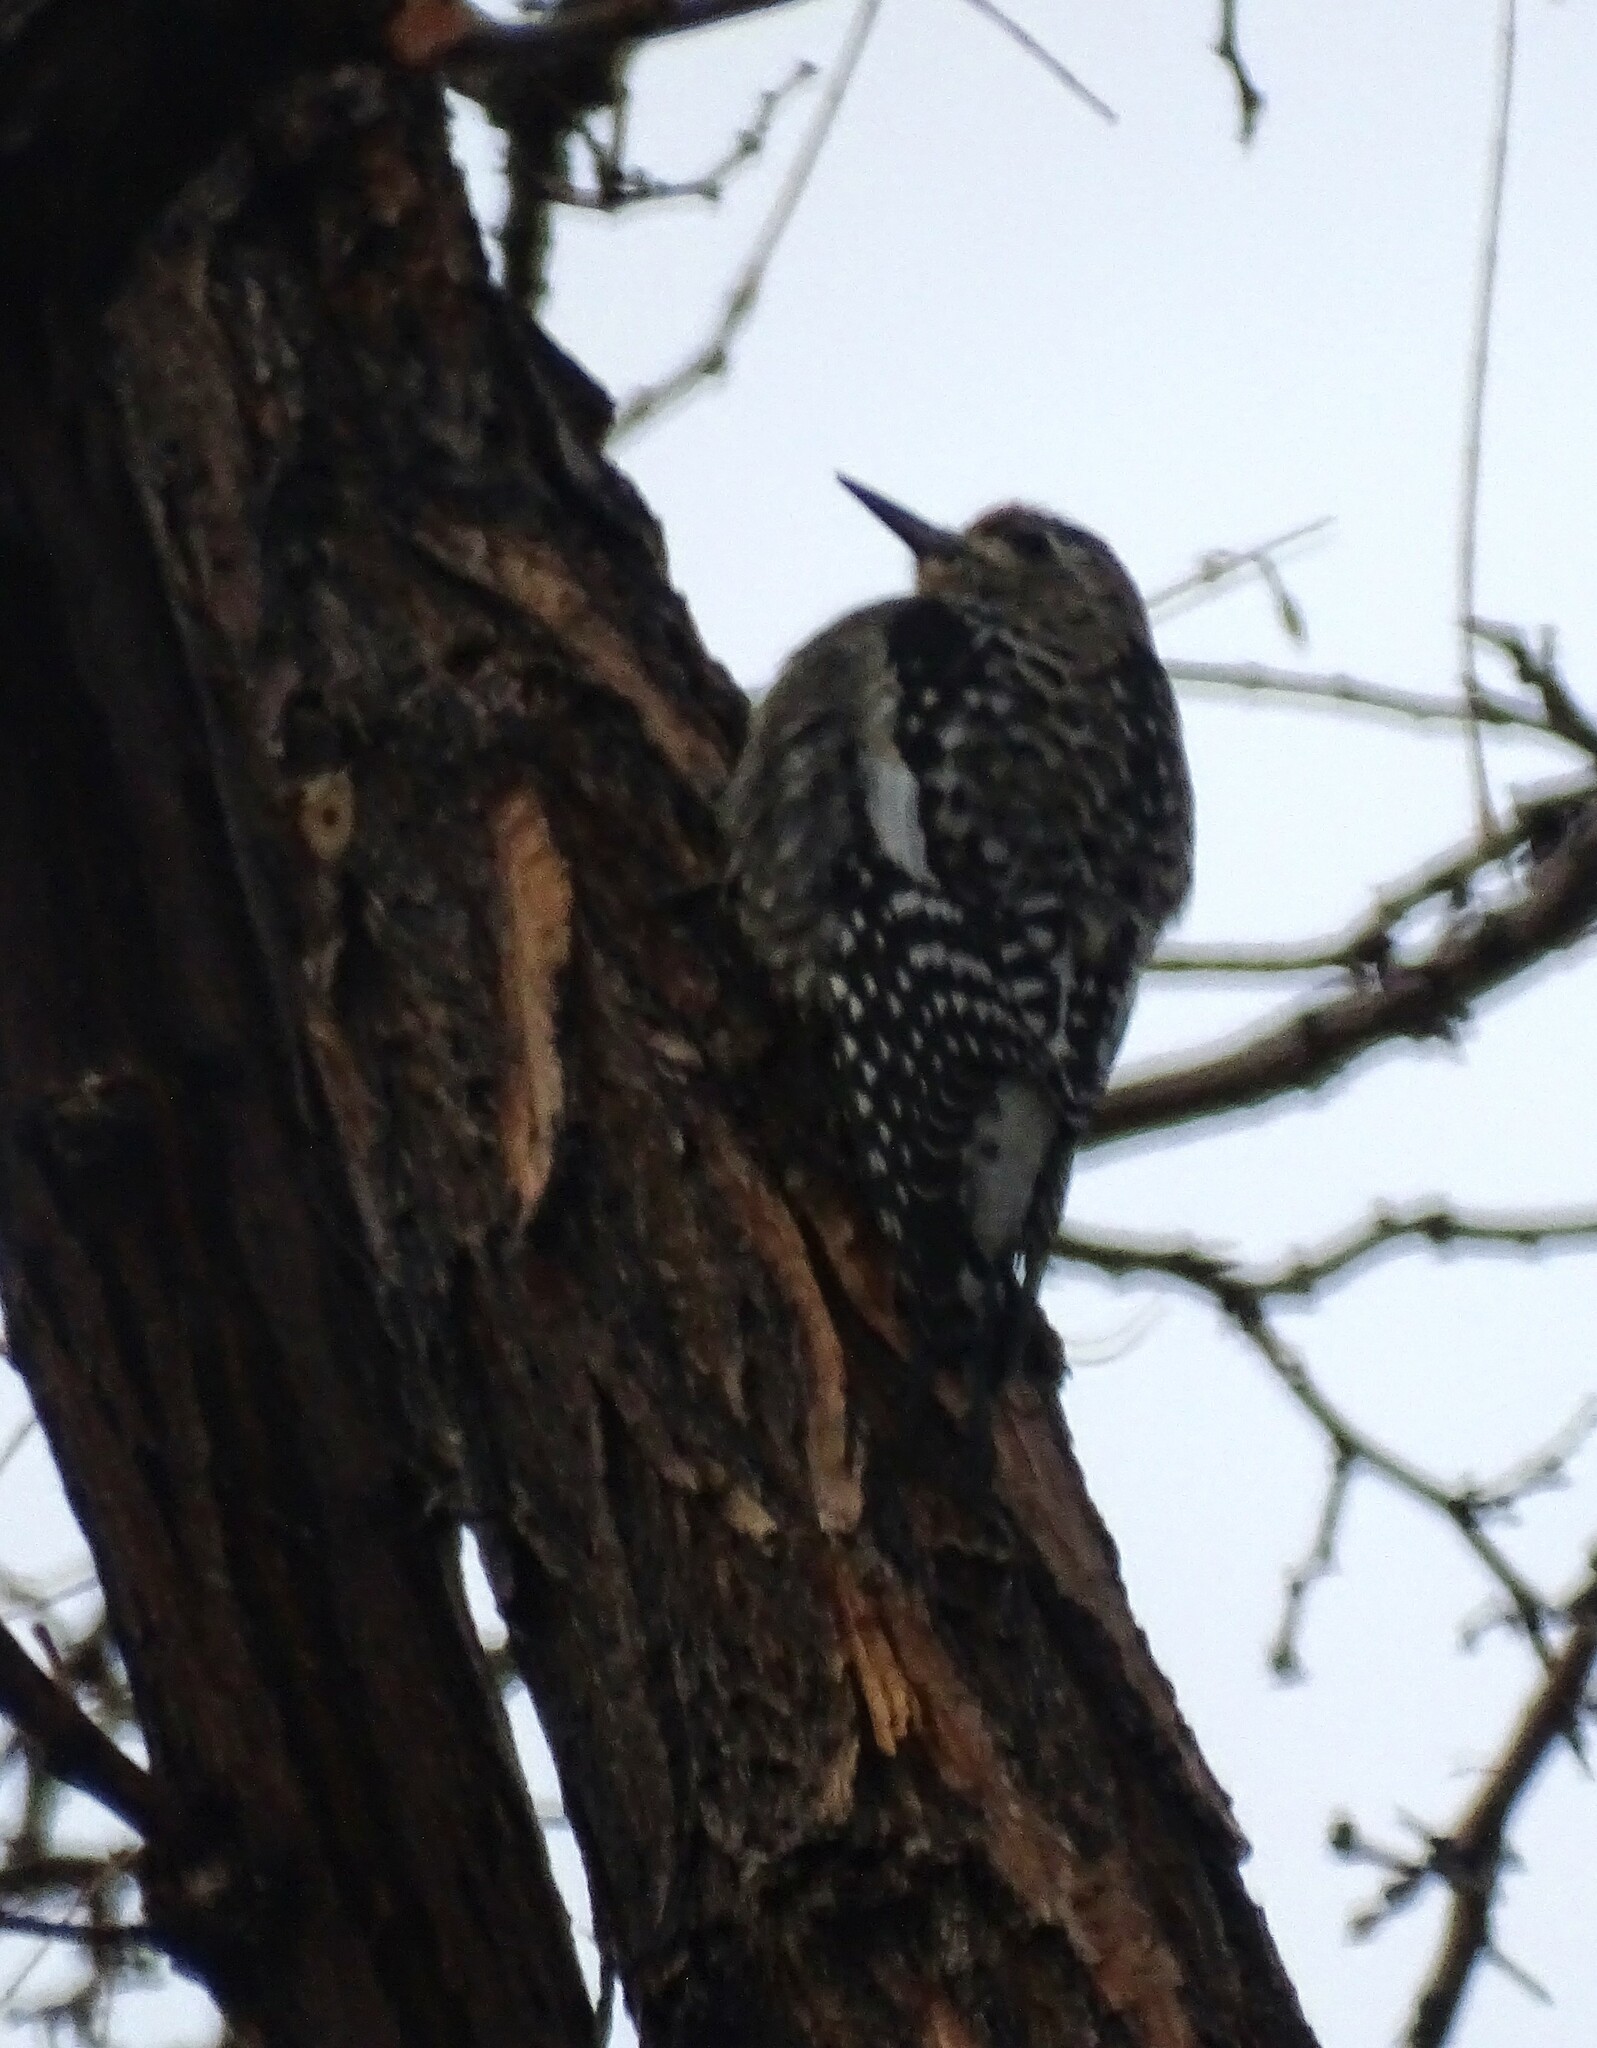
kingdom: Animalia
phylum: Chordata
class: Aves
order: Piciformes
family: Picidae
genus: Sphyrapicus
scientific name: Sphyrapicus varius
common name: Yellow-bellied sapsucker
